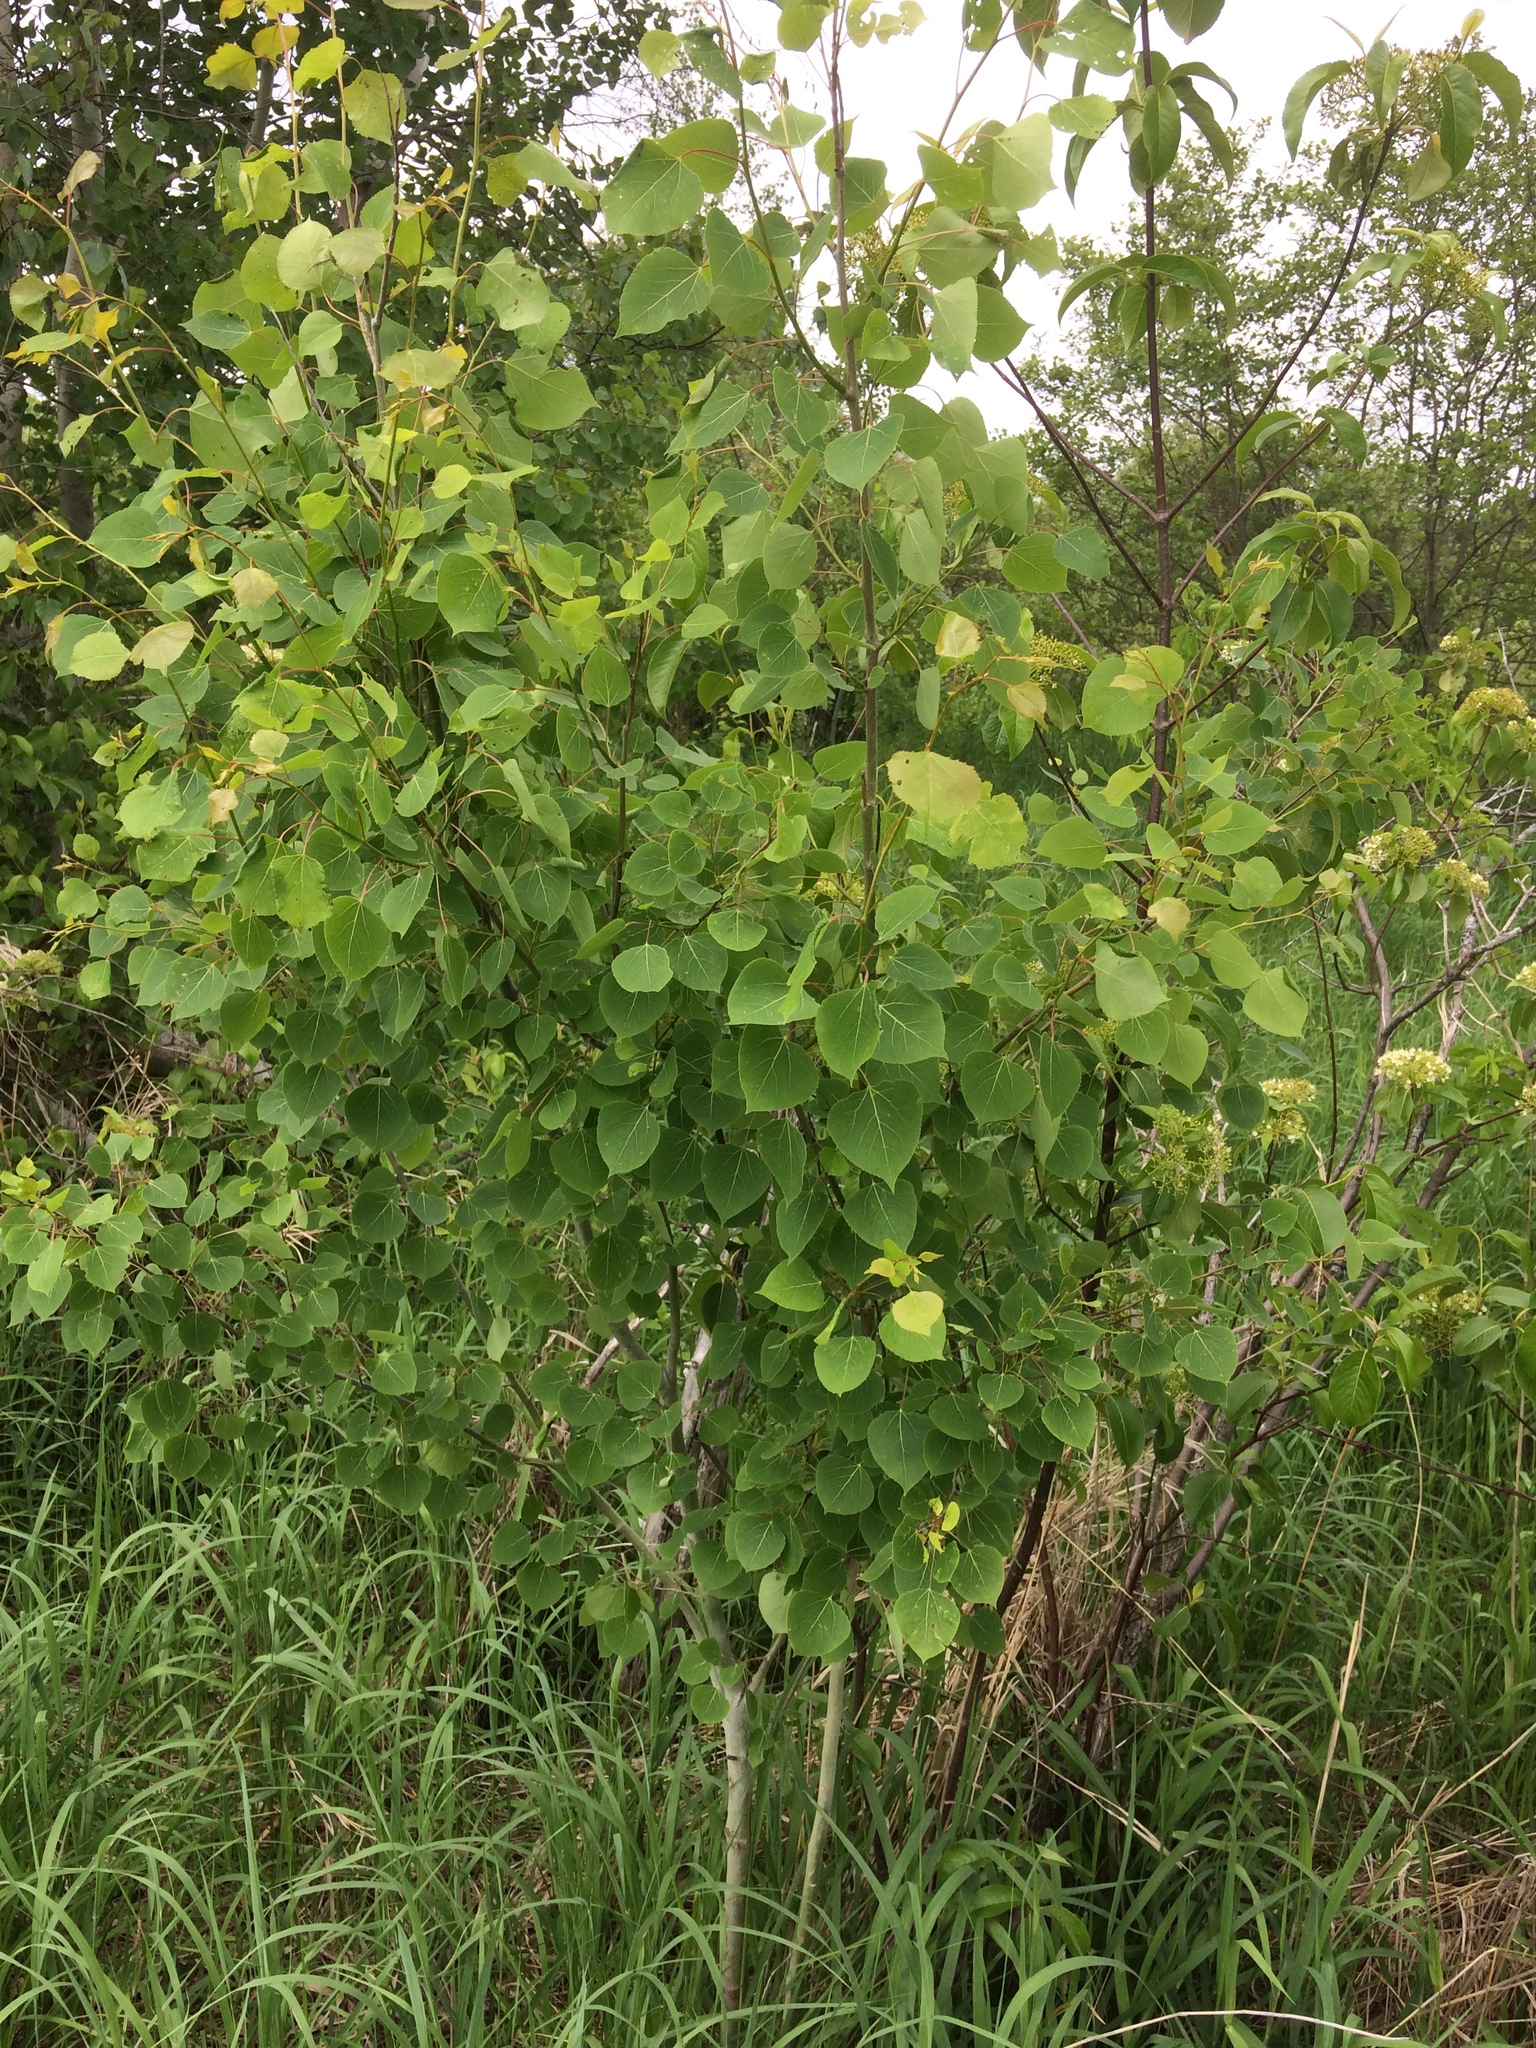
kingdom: Plantae
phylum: Tracheophyta
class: Magnoliopsida
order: Malpighiales
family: Salicaceae
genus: Populus
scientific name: Populus tremuloides
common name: Quaking aspen
